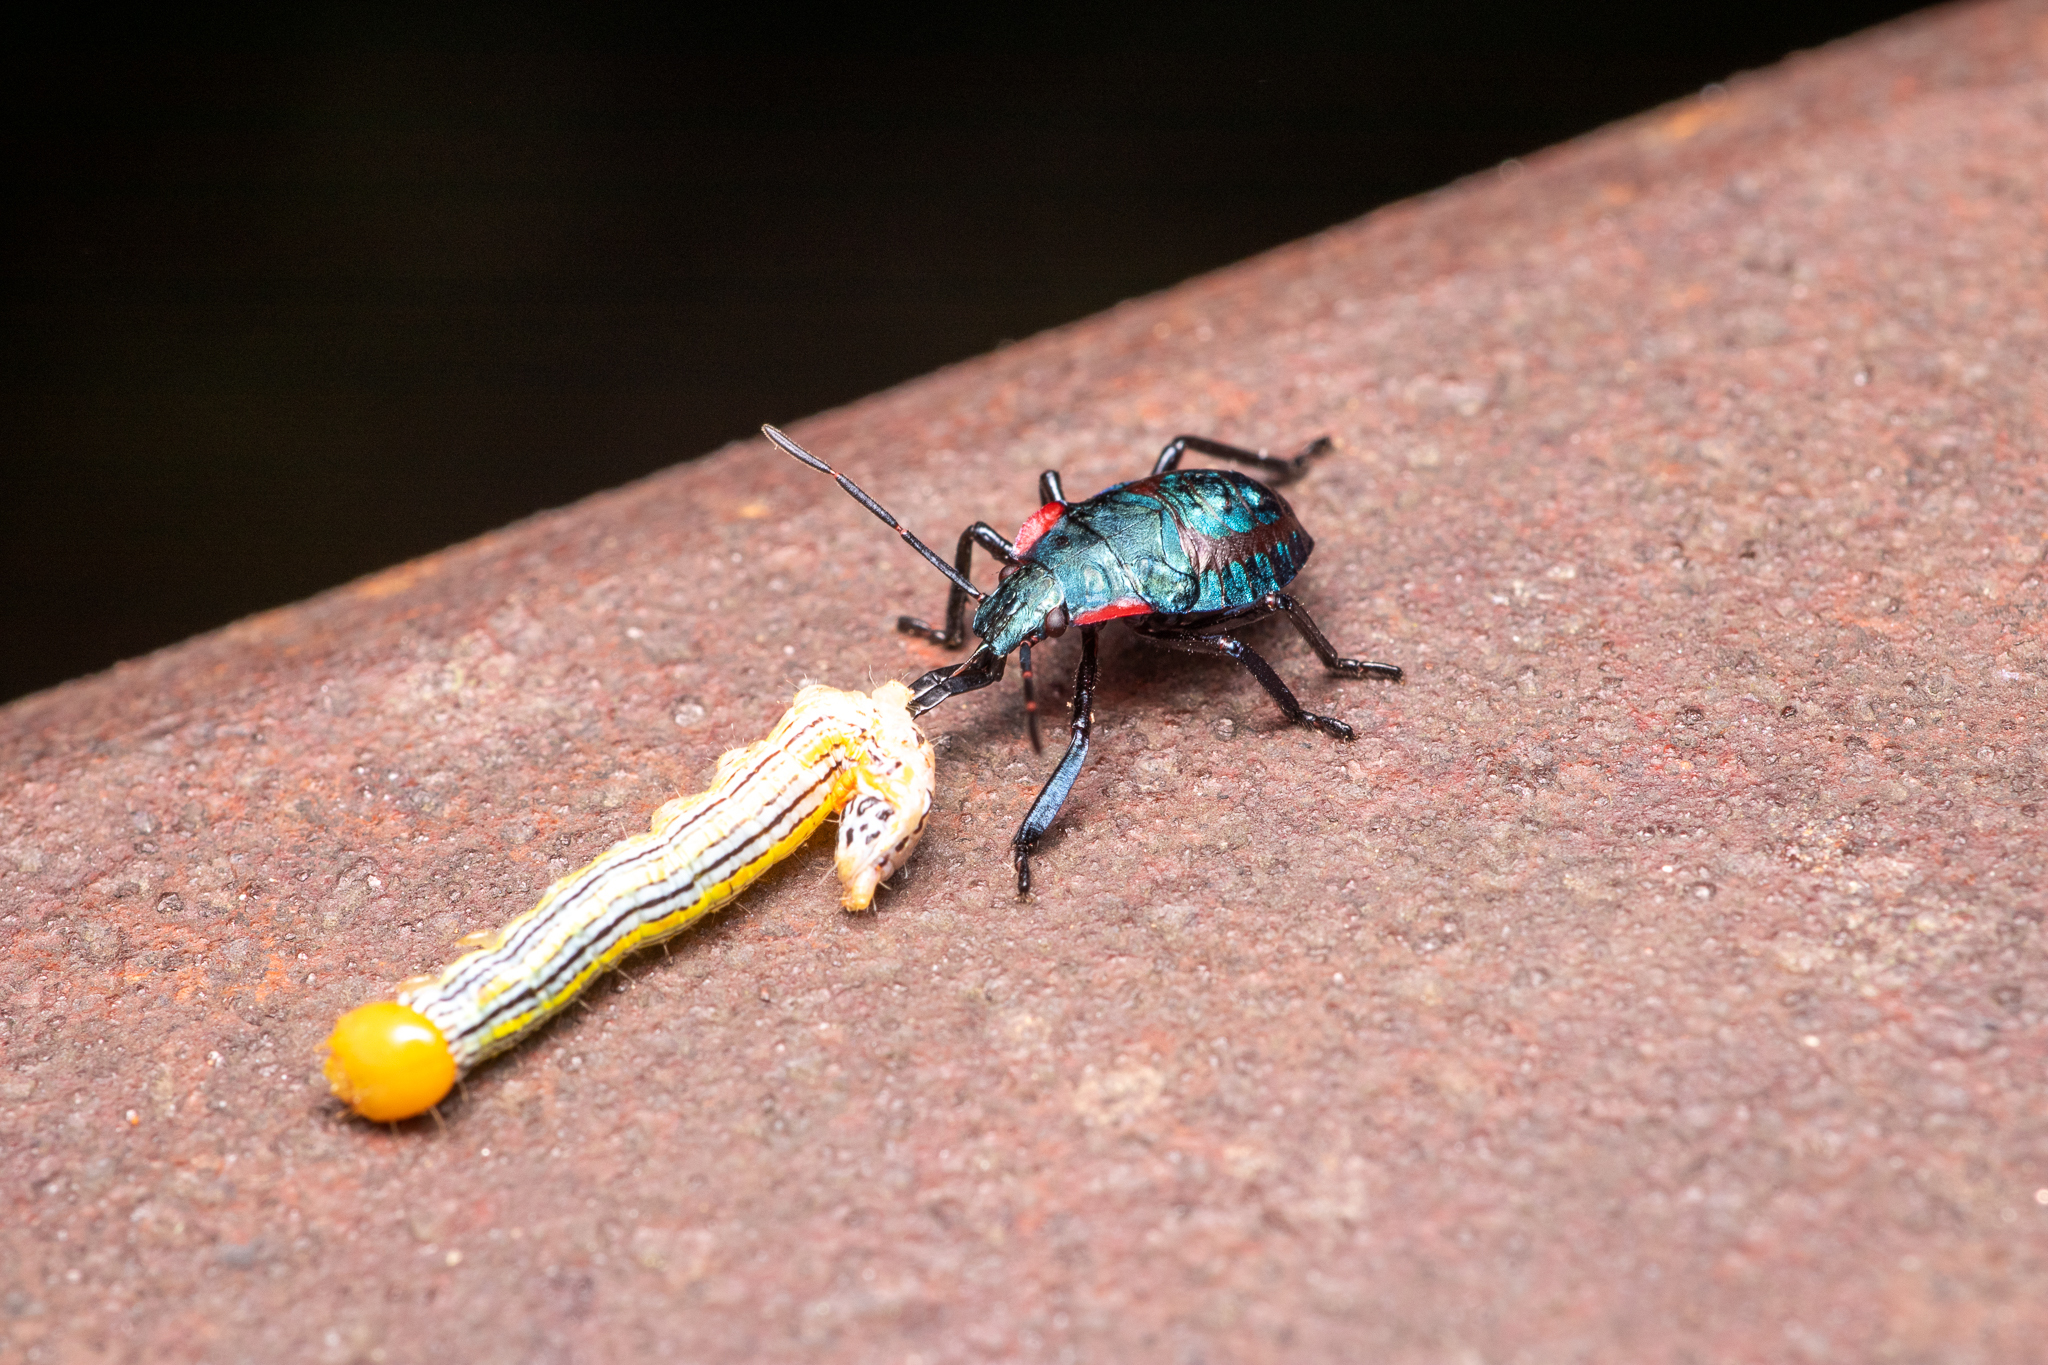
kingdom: Animalia
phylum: Arthropoda
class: Insecta
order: Hemiptera
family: Pentatomidae
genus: Alcaeorrhynchus
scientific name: Alcaeorrhynchus grandis
